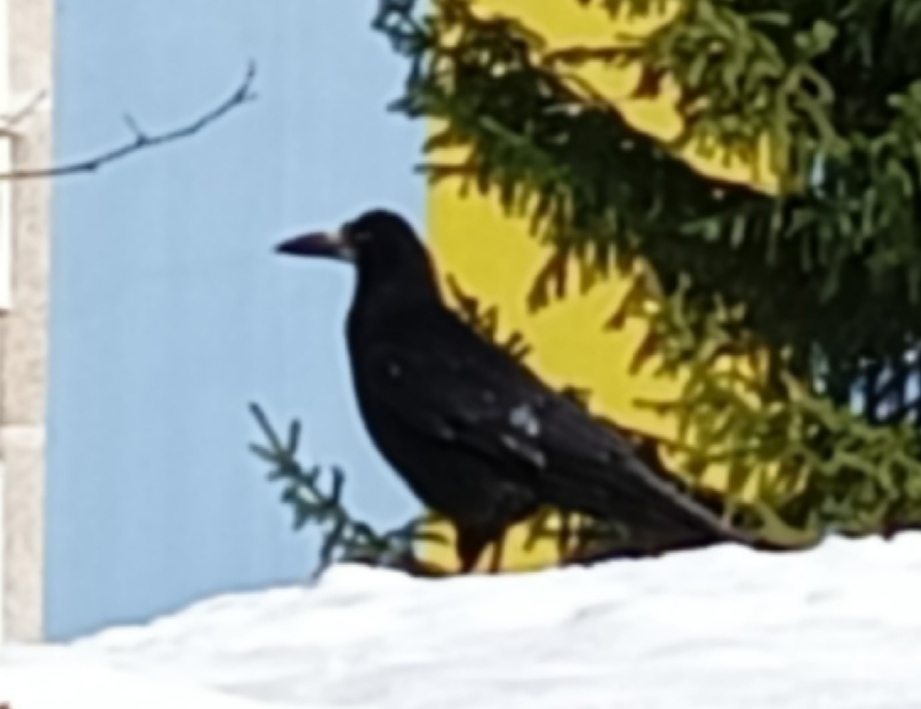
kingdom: Animalia
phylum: Chordata
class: Aves
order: Passeriformes
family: Corvidae
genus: Corvus
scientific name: Corvus frugilegus
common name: Rook
